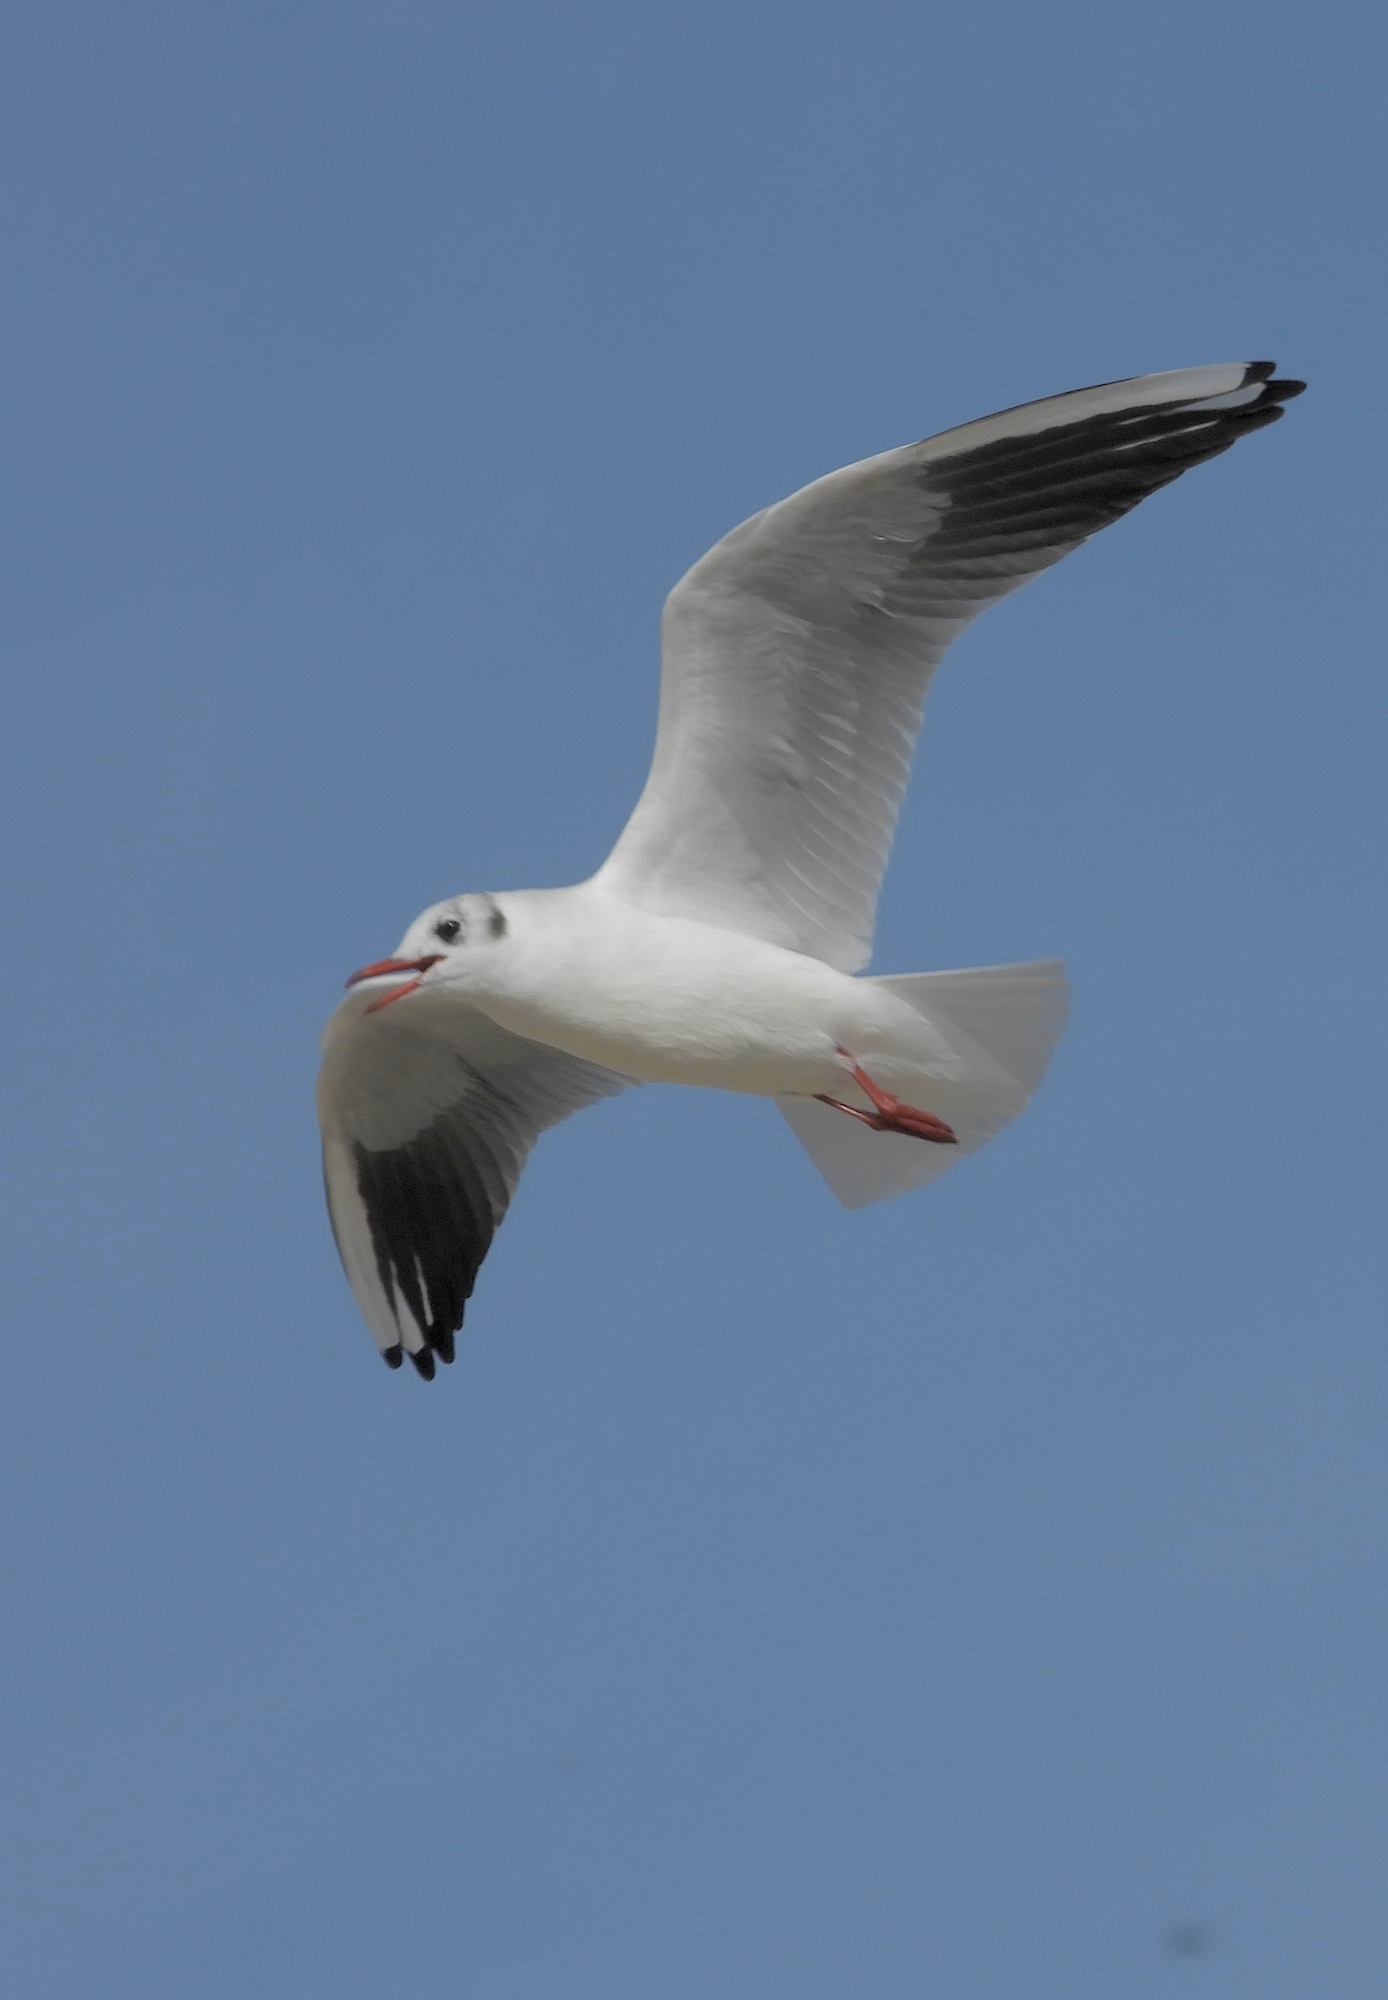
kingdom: Animalia
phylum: Chordata
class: Aves
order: Charadriiformes
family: Laridae
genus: Chroicocephalus
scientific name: Chroicocephalus ridibundus
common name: Black-headed gull
